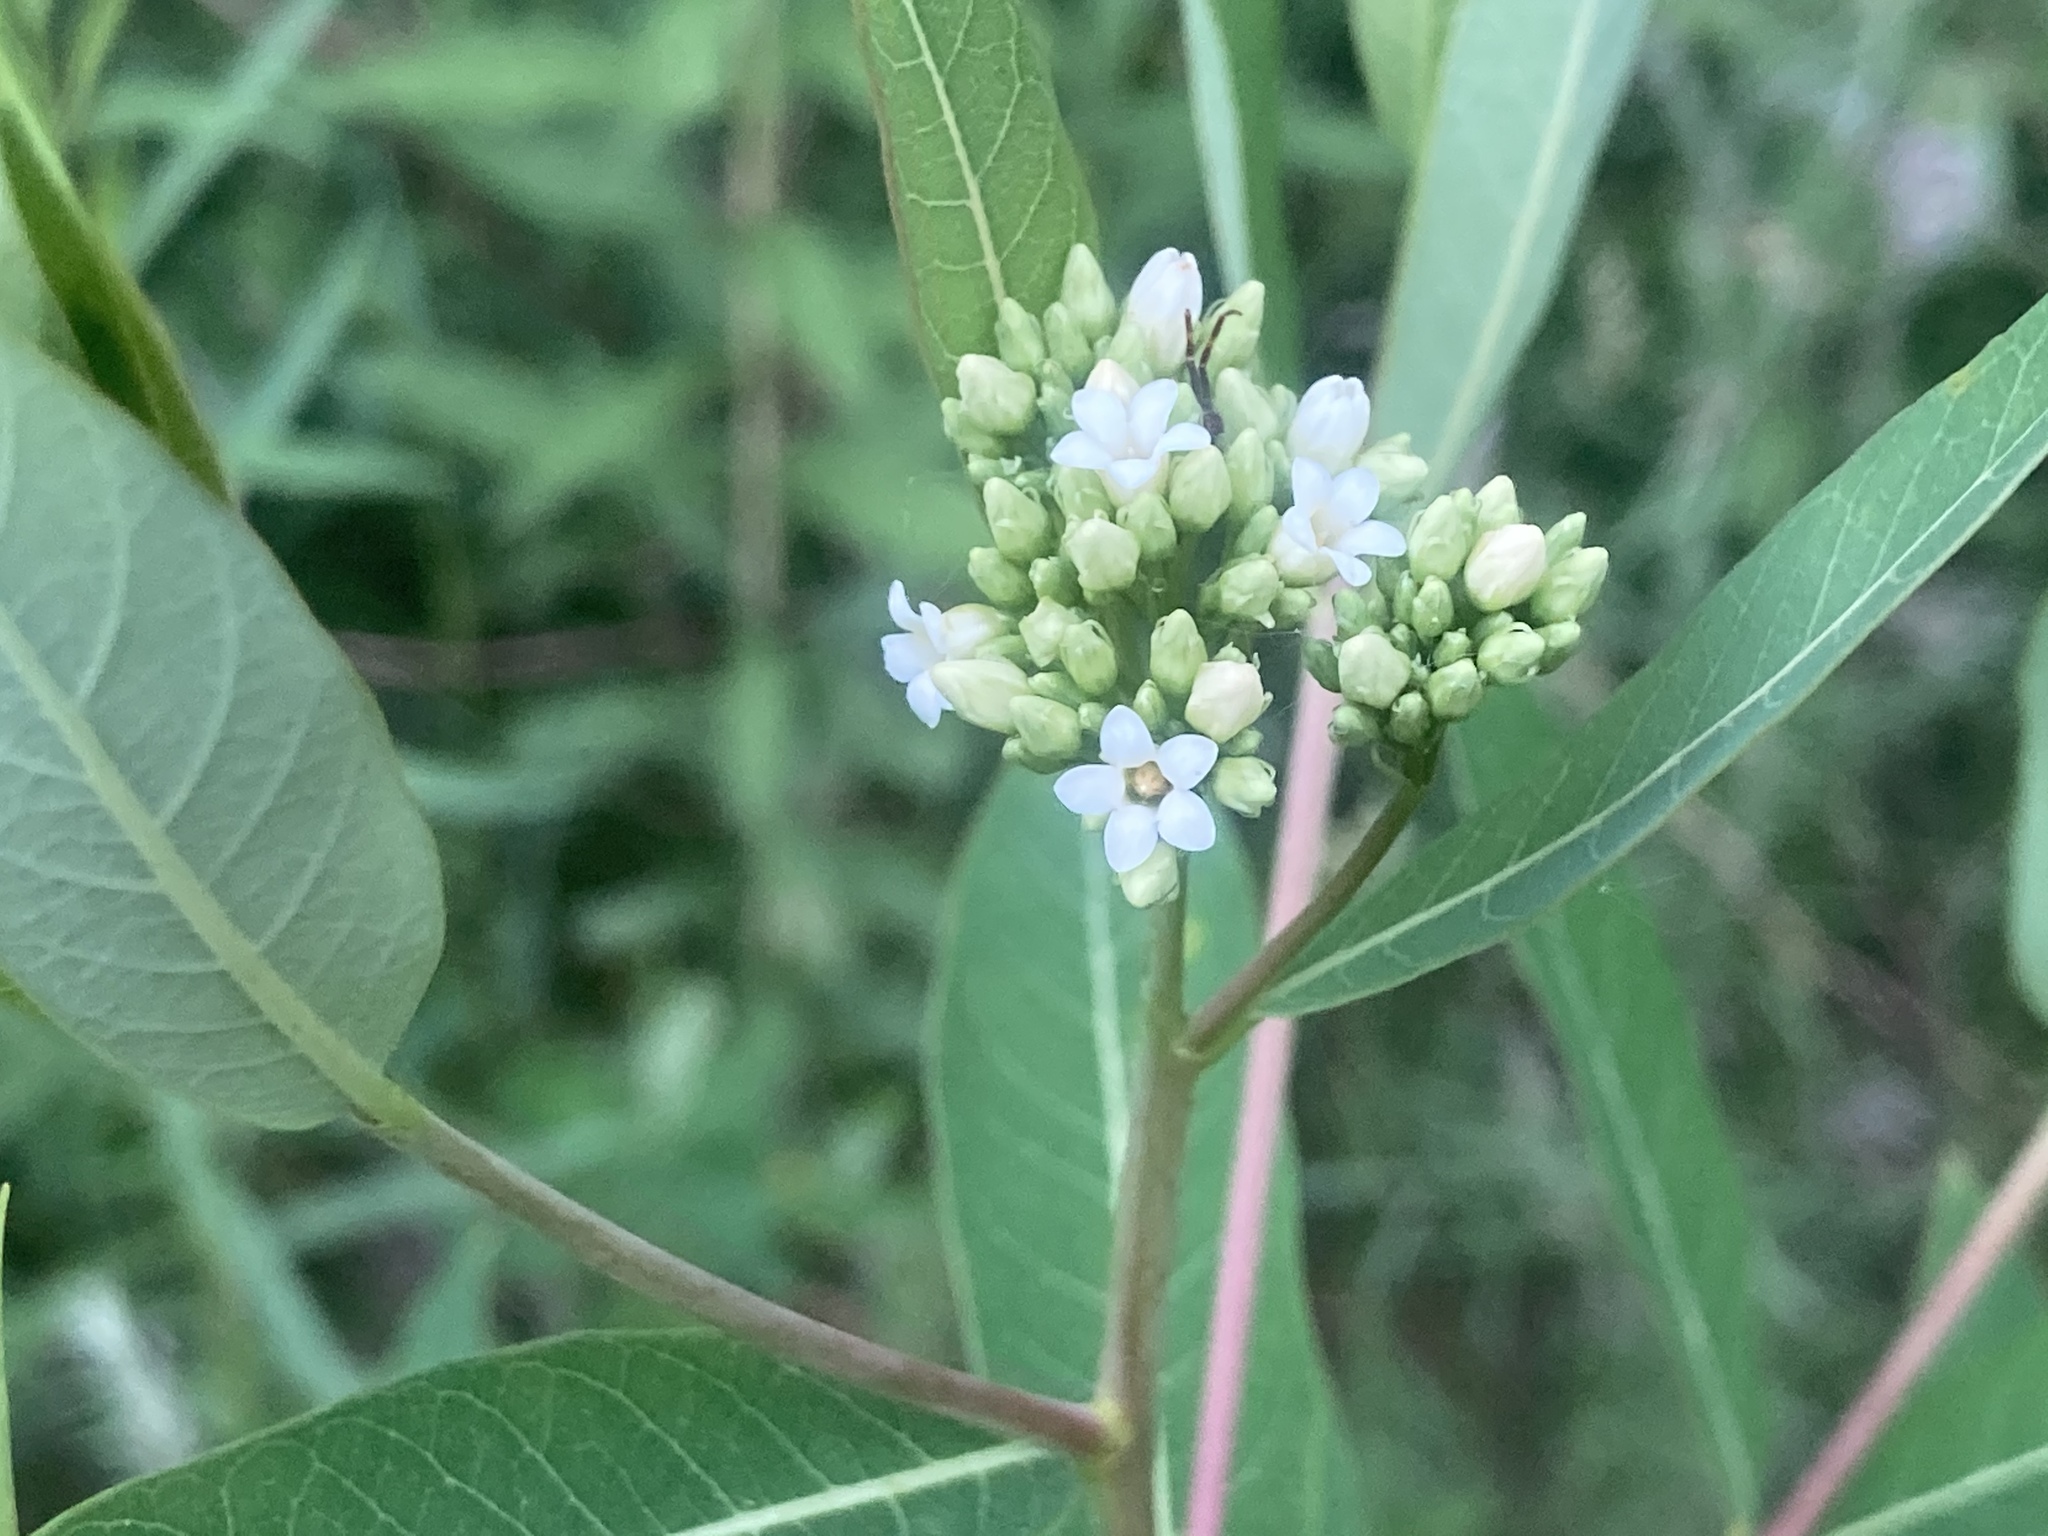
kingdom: Plantae
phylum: Tracheophyta
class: Magnoliopsida
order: Gentianales
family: Apocynaceae
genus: Apocynum
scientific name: Apocynum cannabinum
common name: Hemp dogbane
